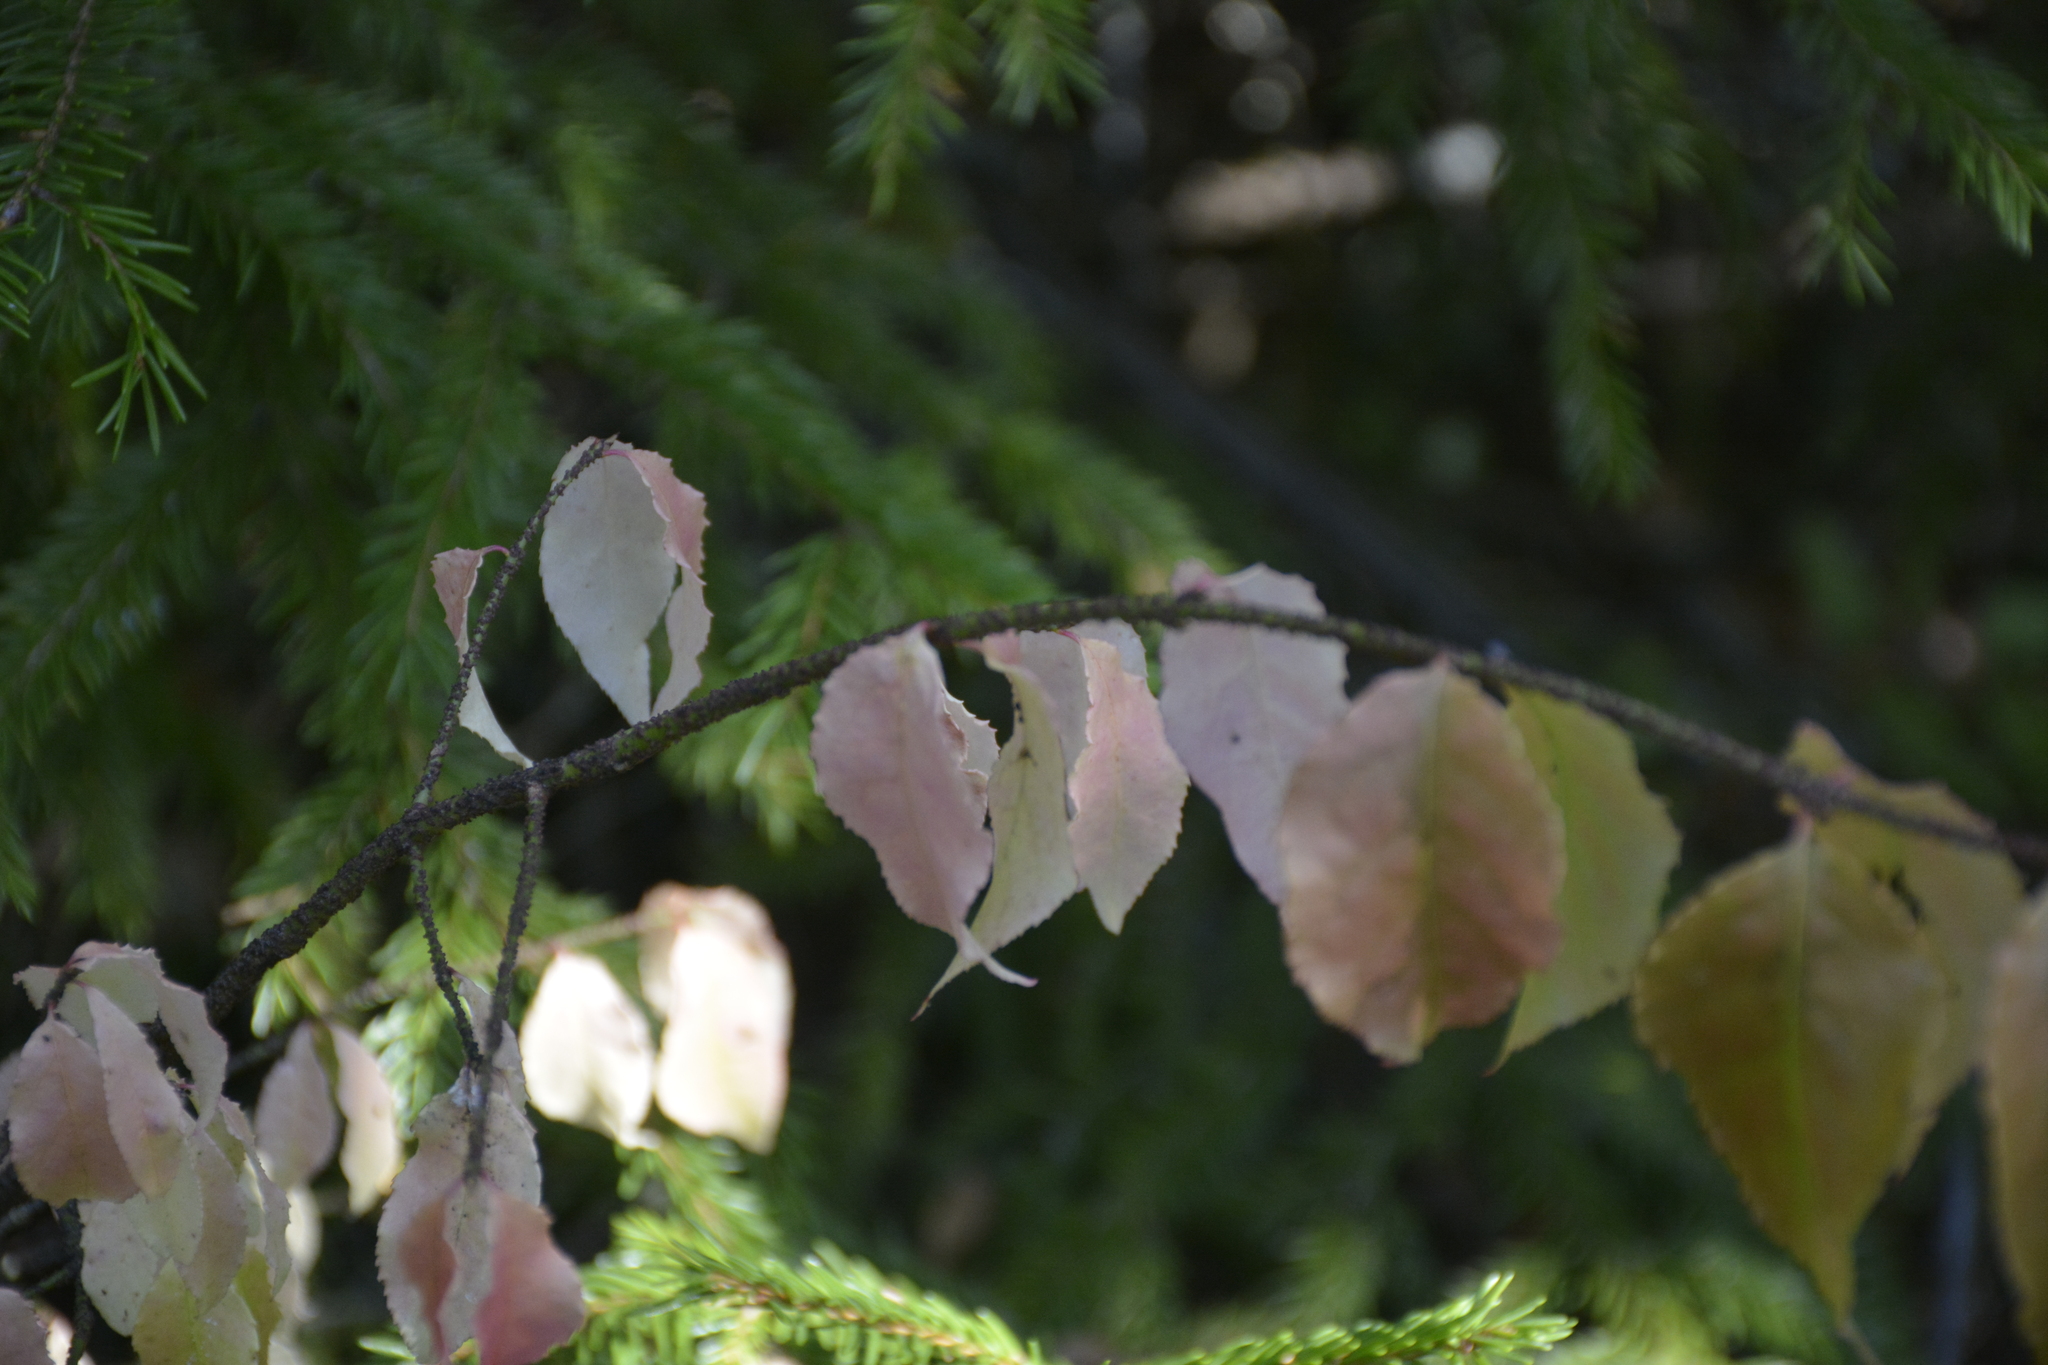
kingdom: Plantae
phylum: Tracheophyta
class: Magnoliopsida
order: Celastrales
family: Celastraceae
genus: Euonymus
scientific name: Euonymus verrucosus
